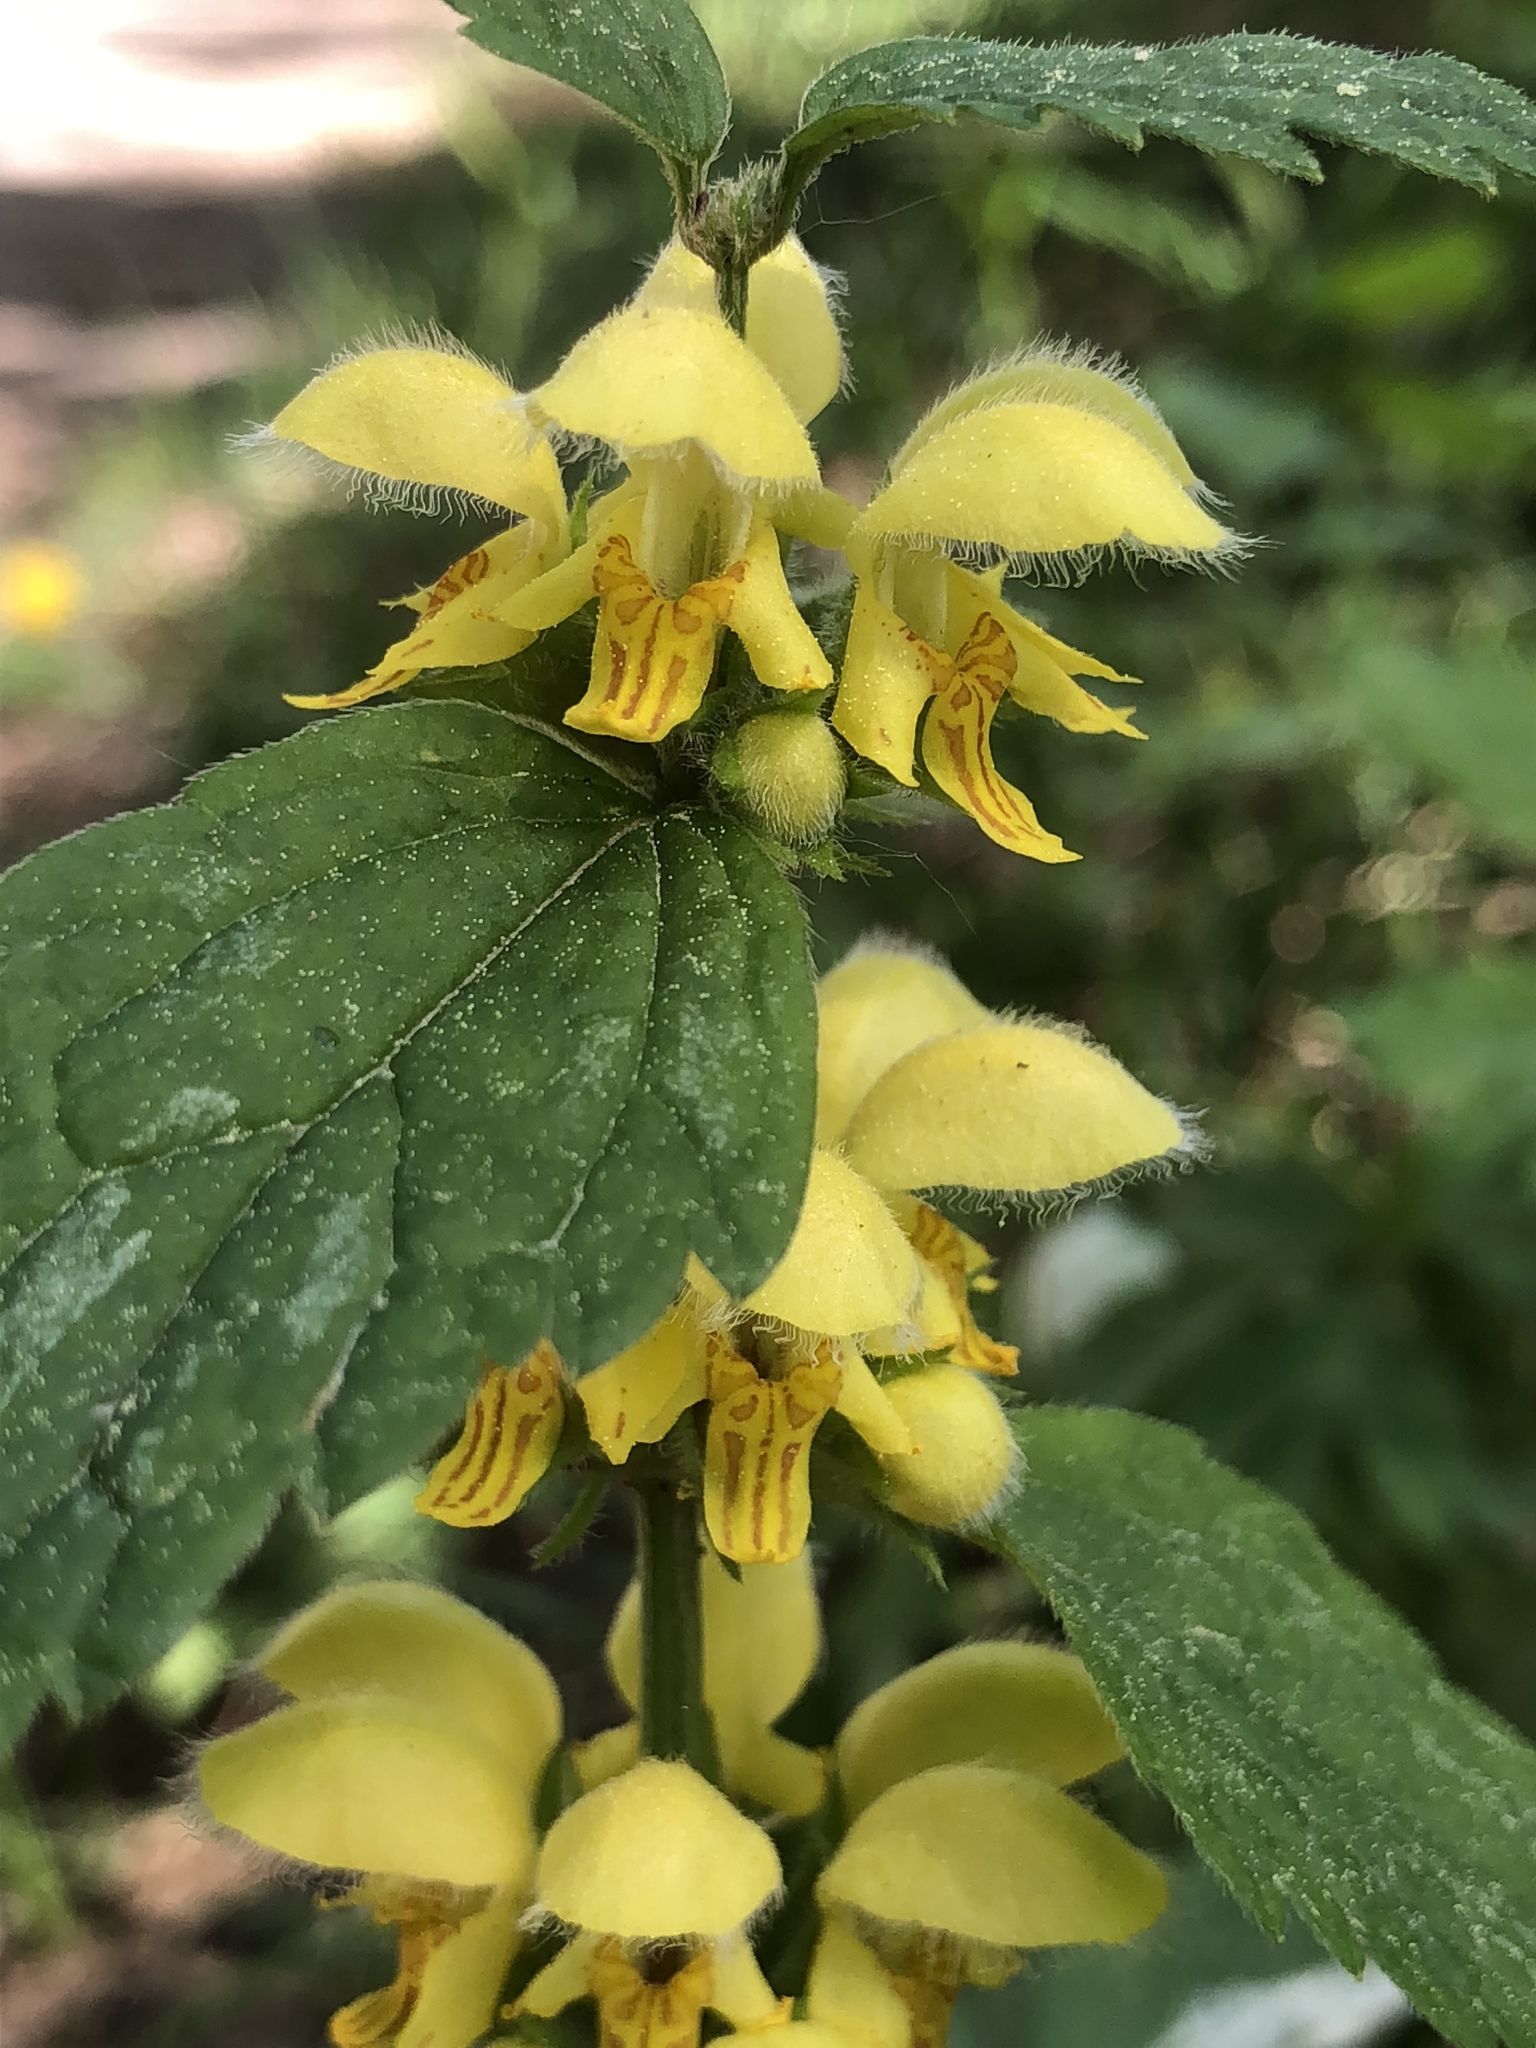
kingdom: Plantae
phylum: Tracheophyta
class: Magnoliopsida
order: Lamiales
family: Lamiaceae
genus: Lamium
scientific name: Lamium galeobdolon
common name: Yellow archangel
